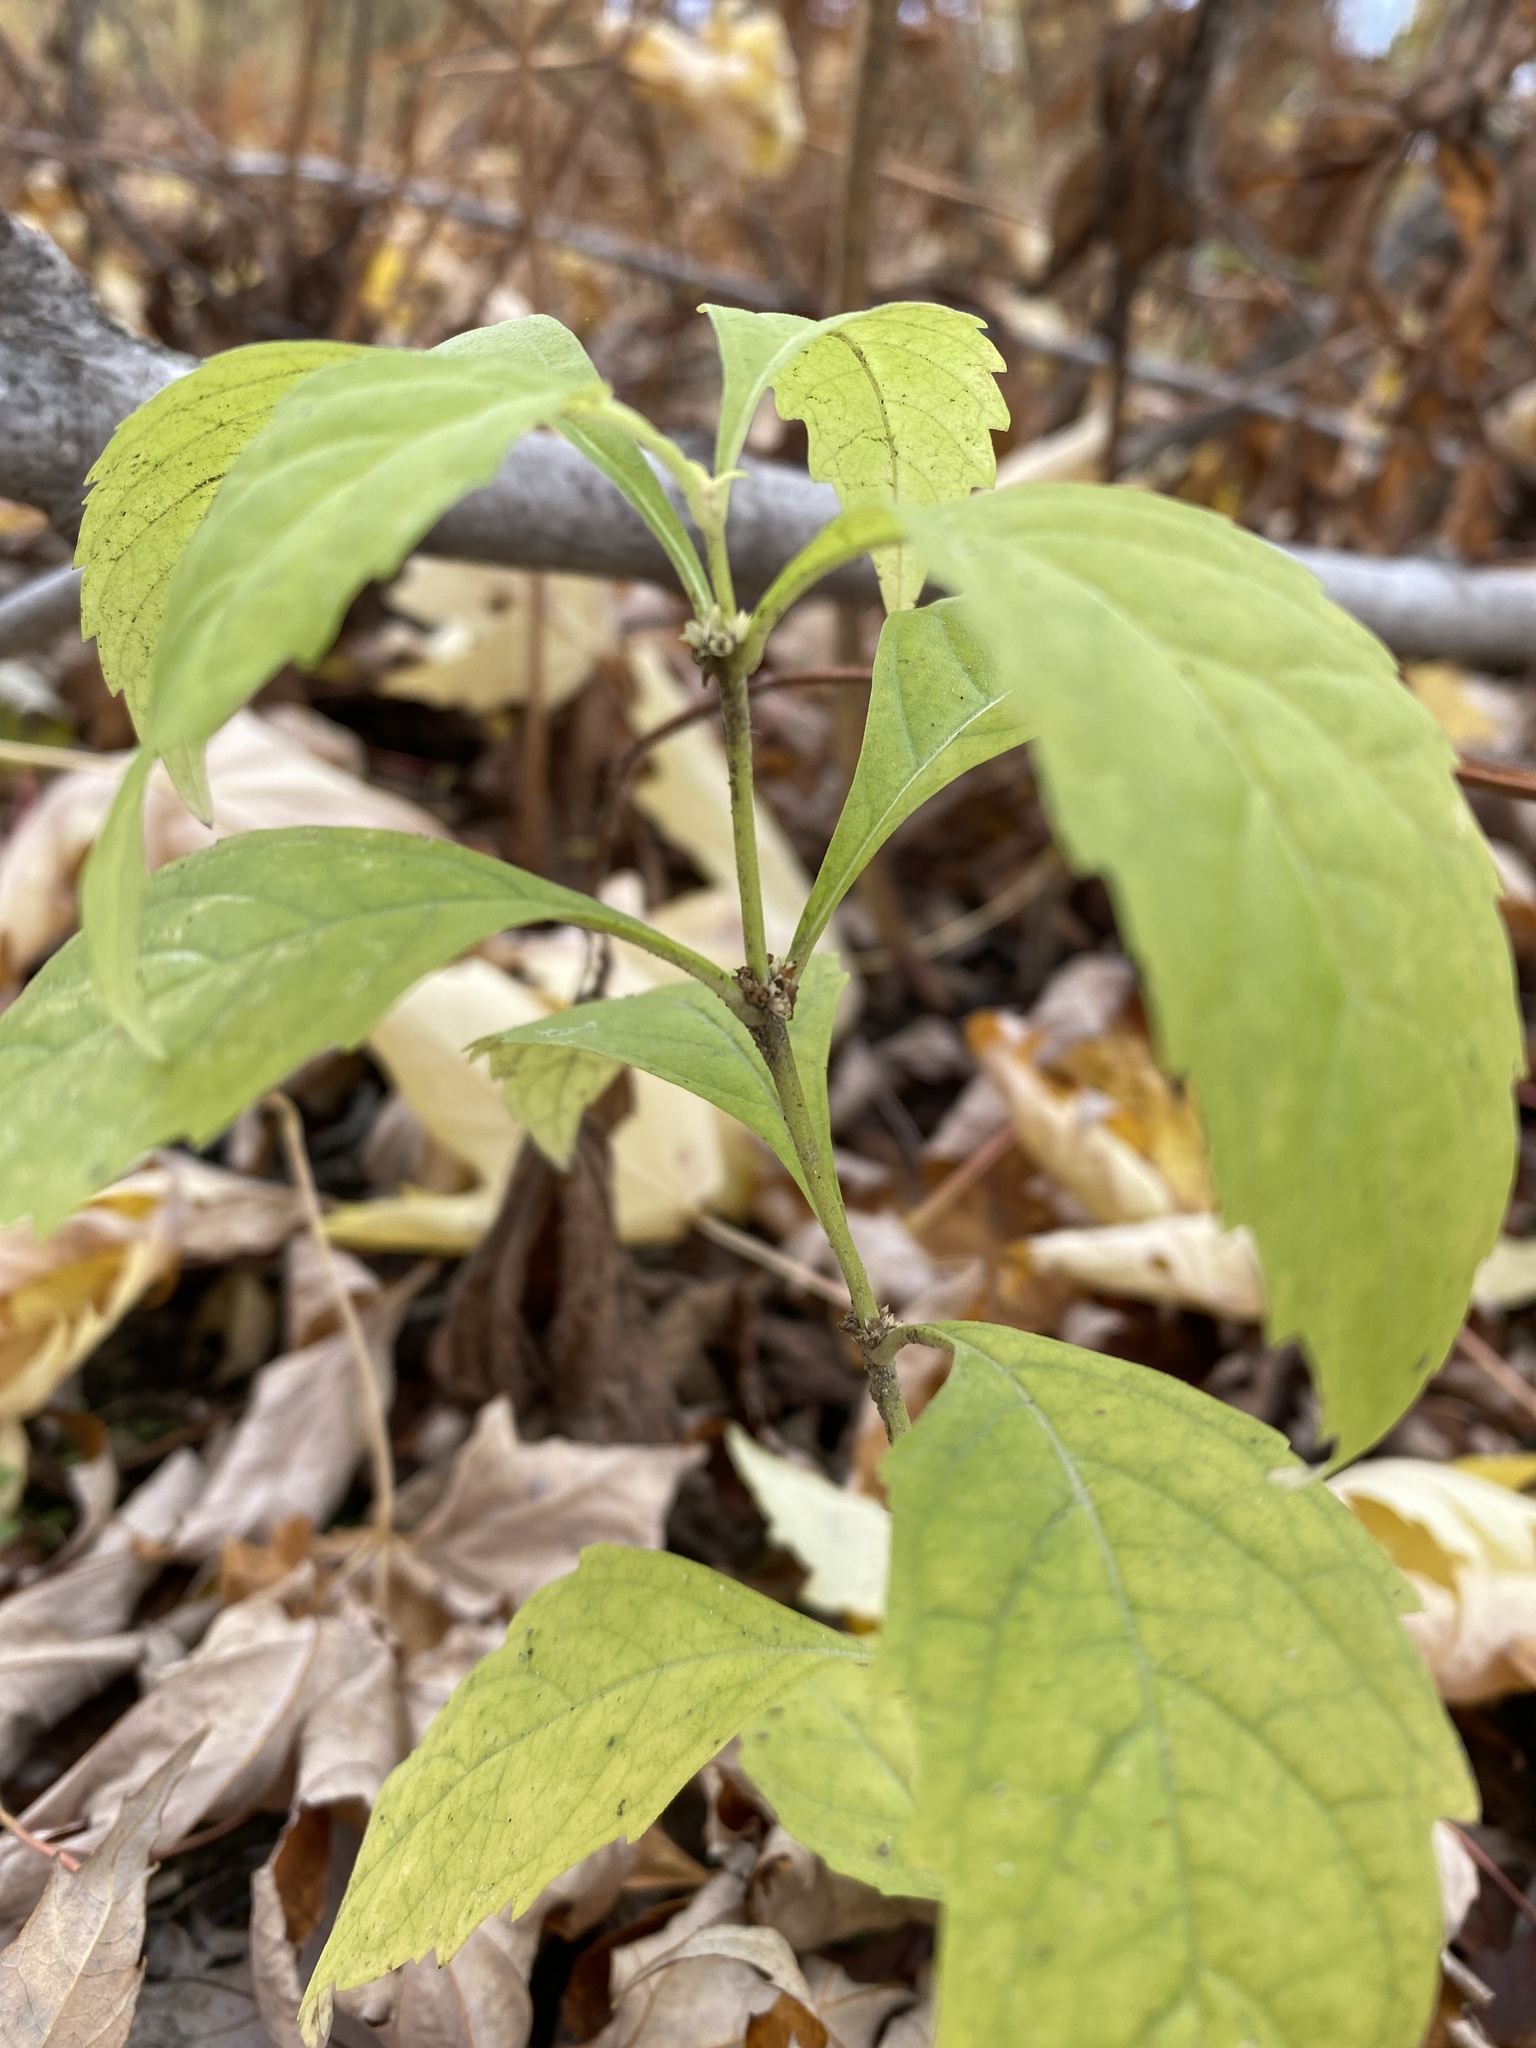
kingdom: Plantae
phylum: Tracheophyta
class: Magnoliopsida
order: Lamiales
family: Lamiaceae
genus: Lycopus
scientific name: Lycopus uniflorus
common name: Northern bugleweed
